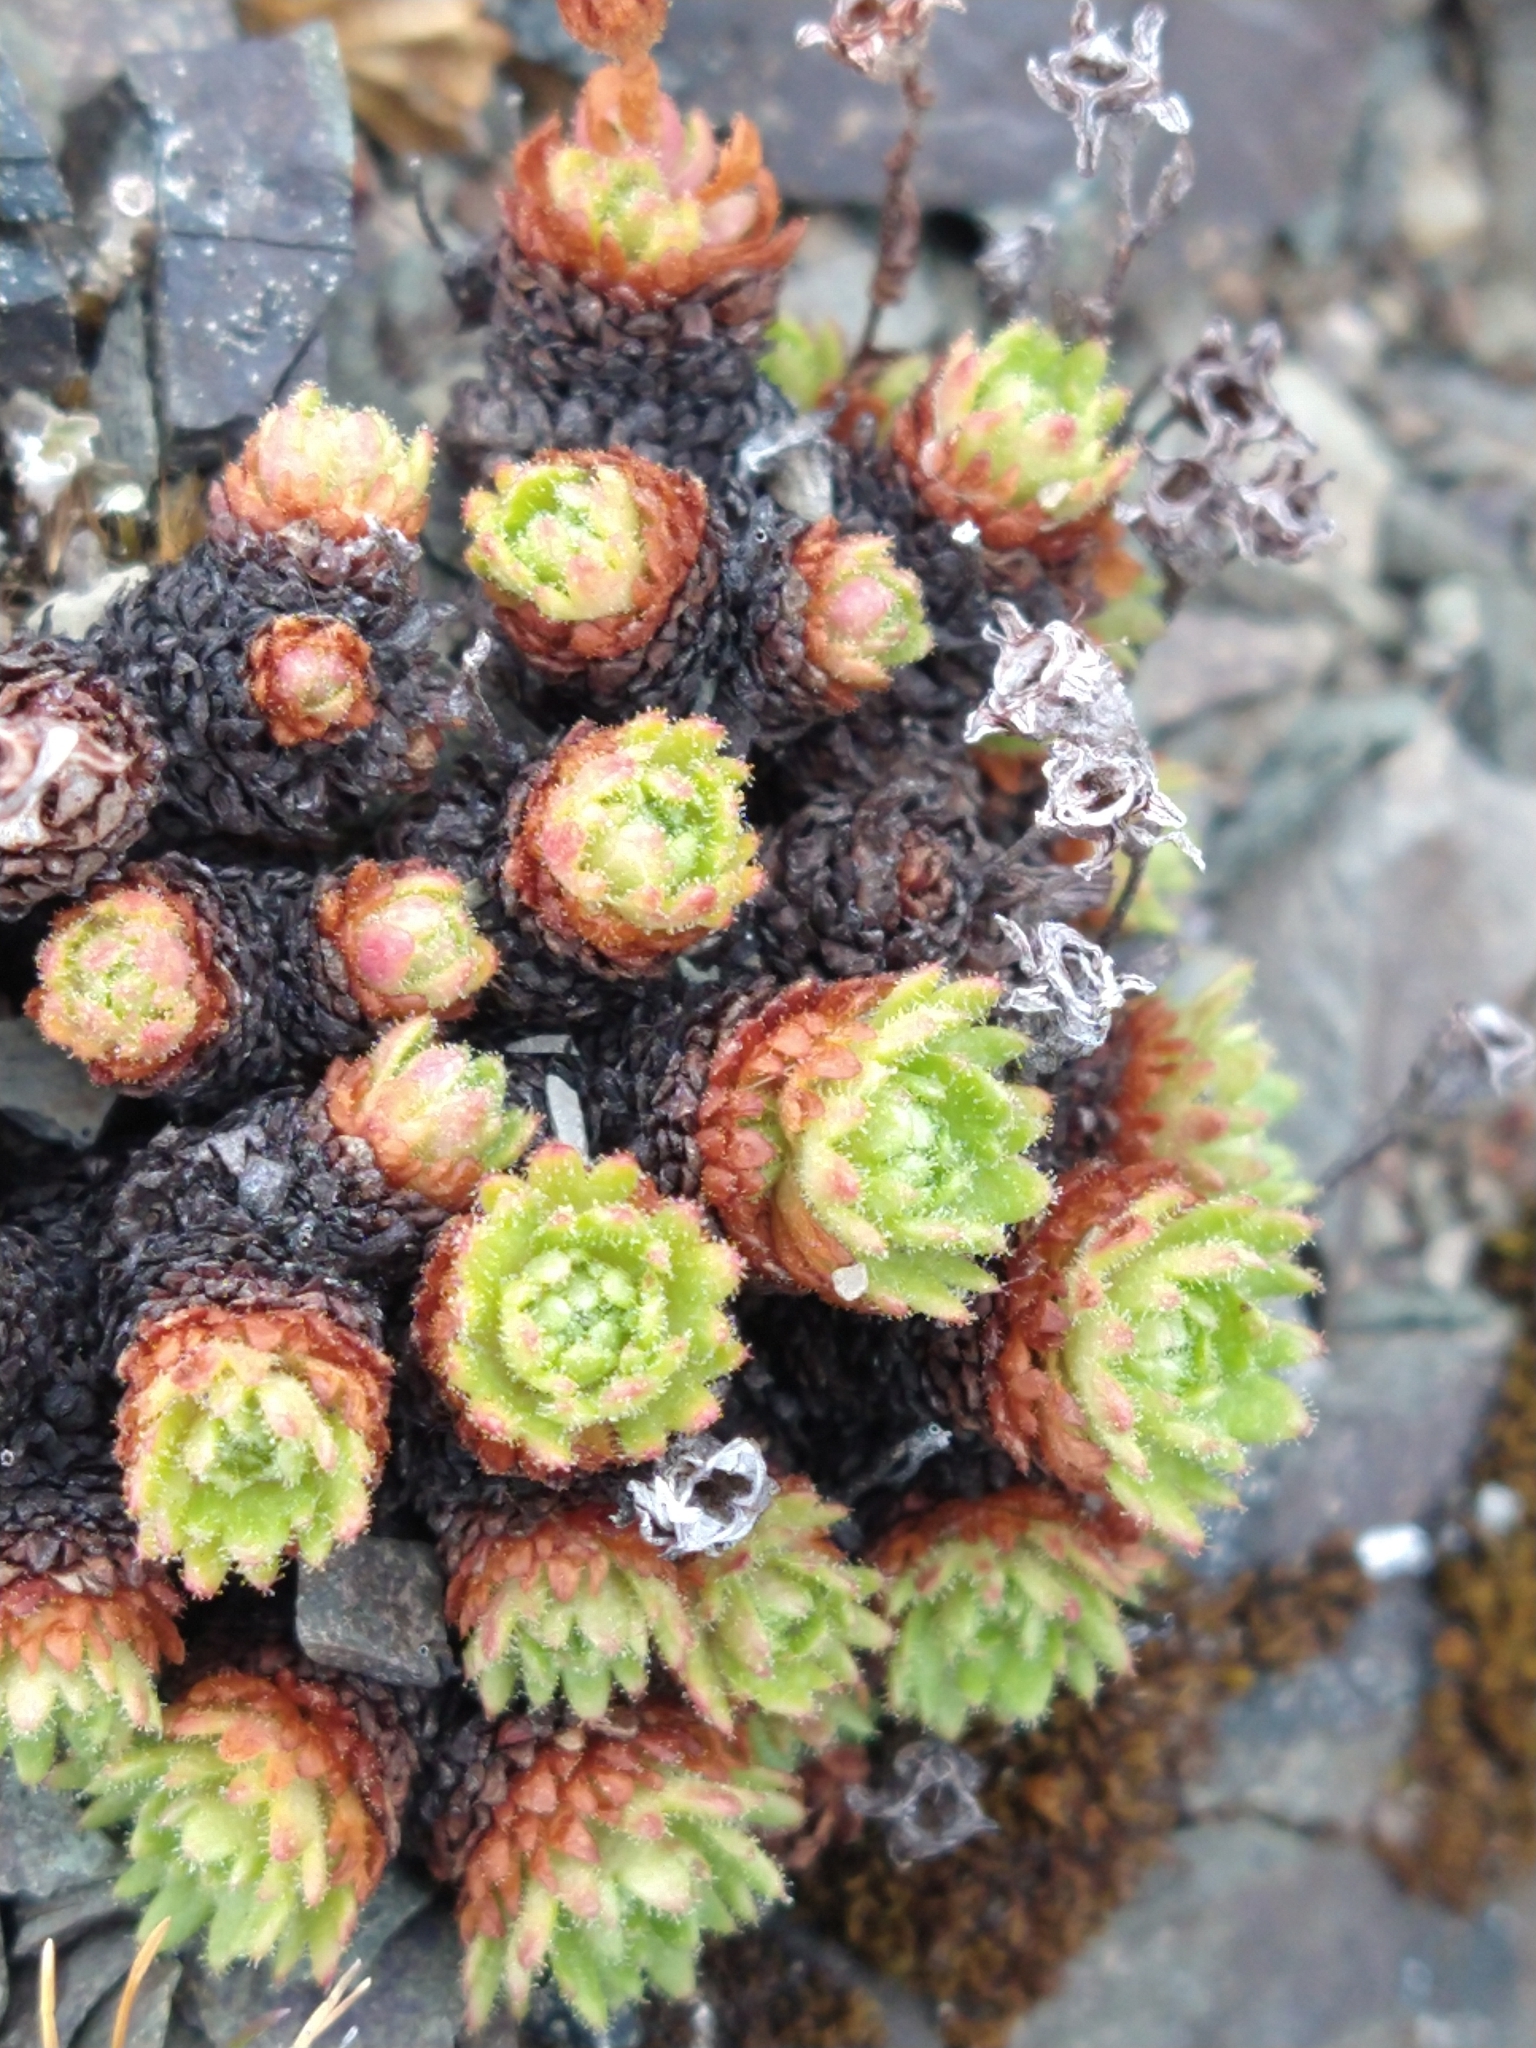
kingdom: Plantae
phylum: Tracheophyta
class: Magnoliopsida
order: Saxifragales
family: Saxifragaceae
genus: Saxifraga
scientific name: Saxifraga magellanica
